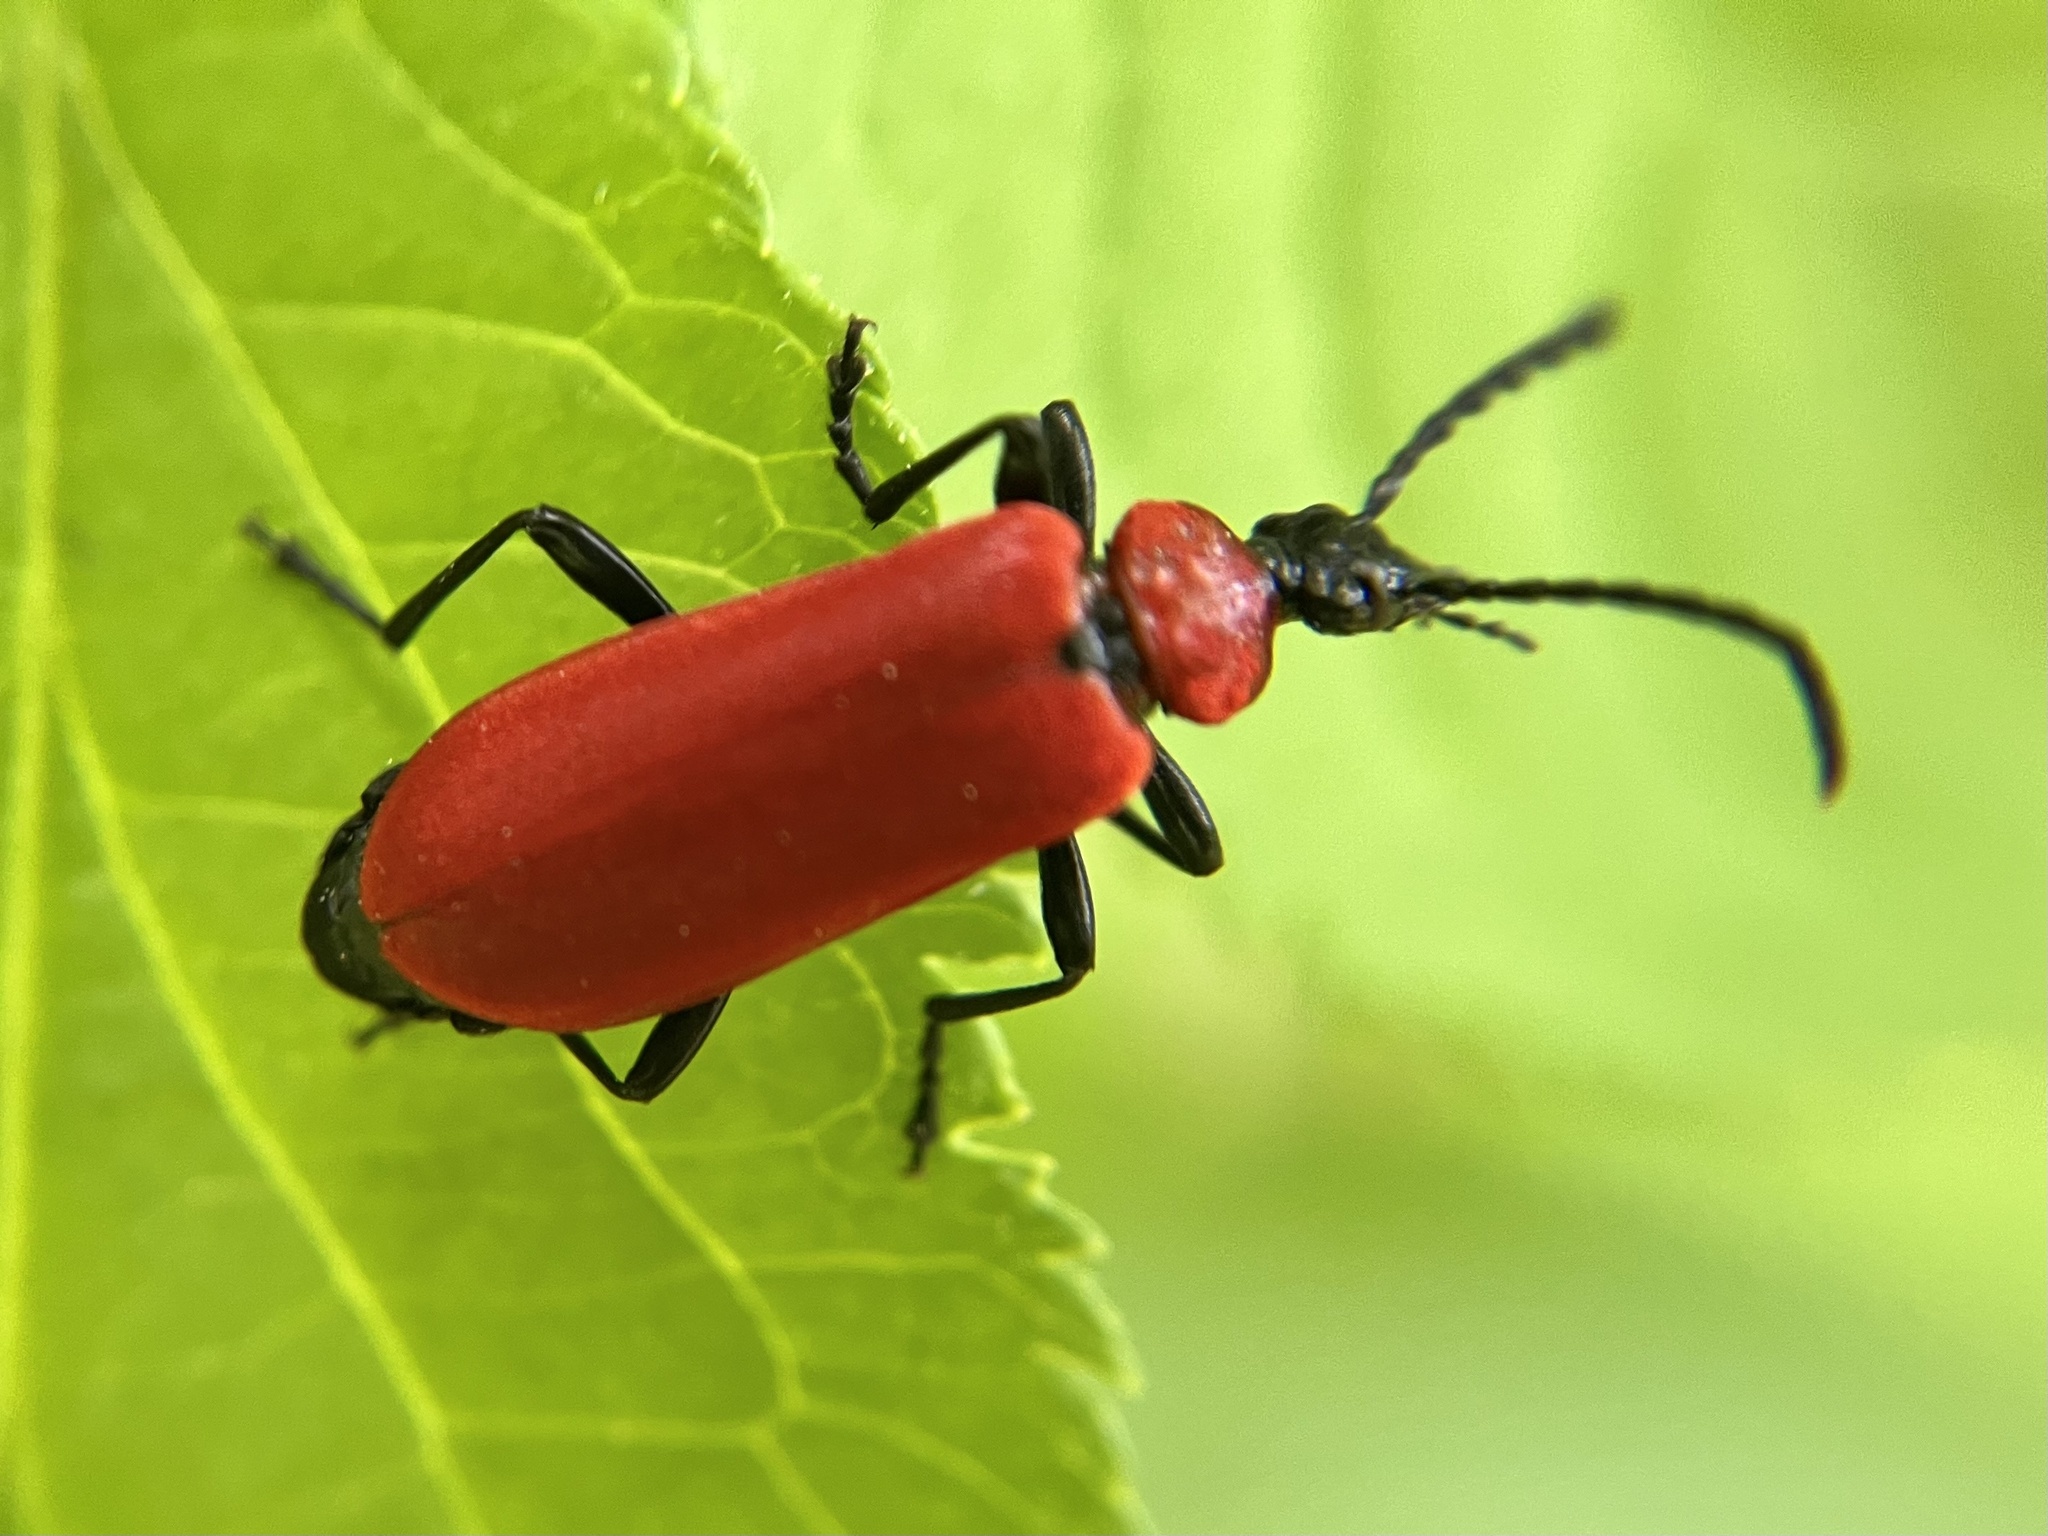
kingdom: Animalia
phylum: Arthropoda
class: Insecta
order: Coleoptera
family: Pyrochroidae
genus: Pyrochroa
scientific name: Pyrochroa coccinea
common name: Black-headed cardinal beetle
